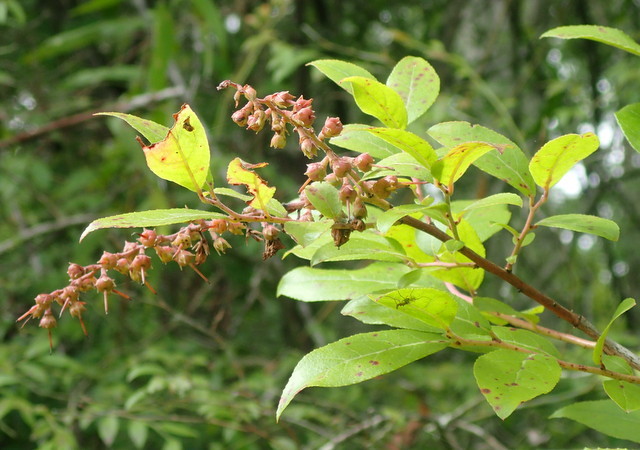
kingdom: Plantae
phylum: Tracheophyta
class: Magnoliopsida
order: Ericales
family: Ericaceae
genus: Eubotrys
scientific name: Eubotrys racemosa
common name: Fetterbush
